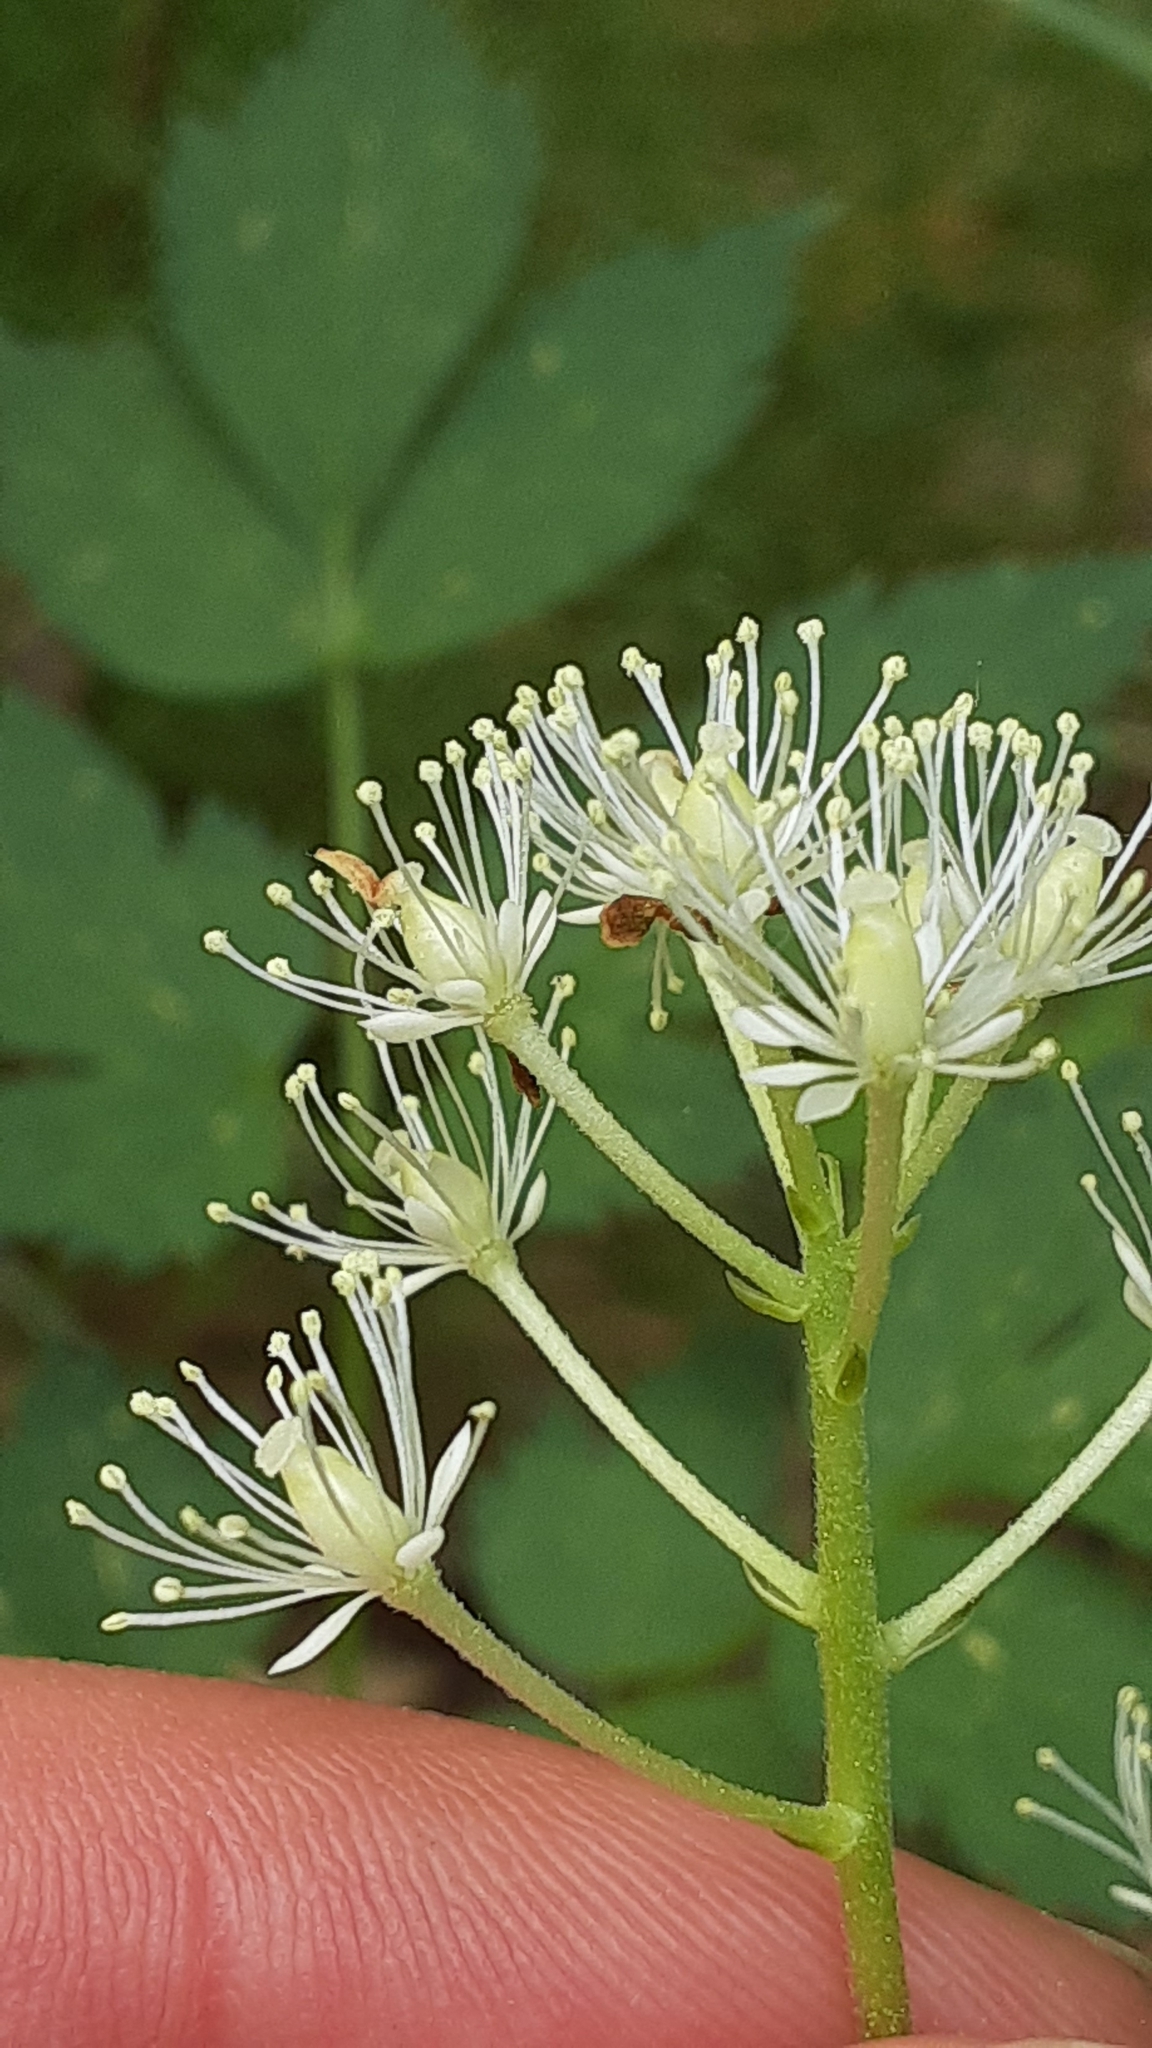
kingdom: Plantae
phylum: Tracheophyta
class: Magnoliopsida
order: Ranunculales
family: Ranunculaceae
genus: Actaea
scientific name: Actaea rubra
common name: Red baneberry
